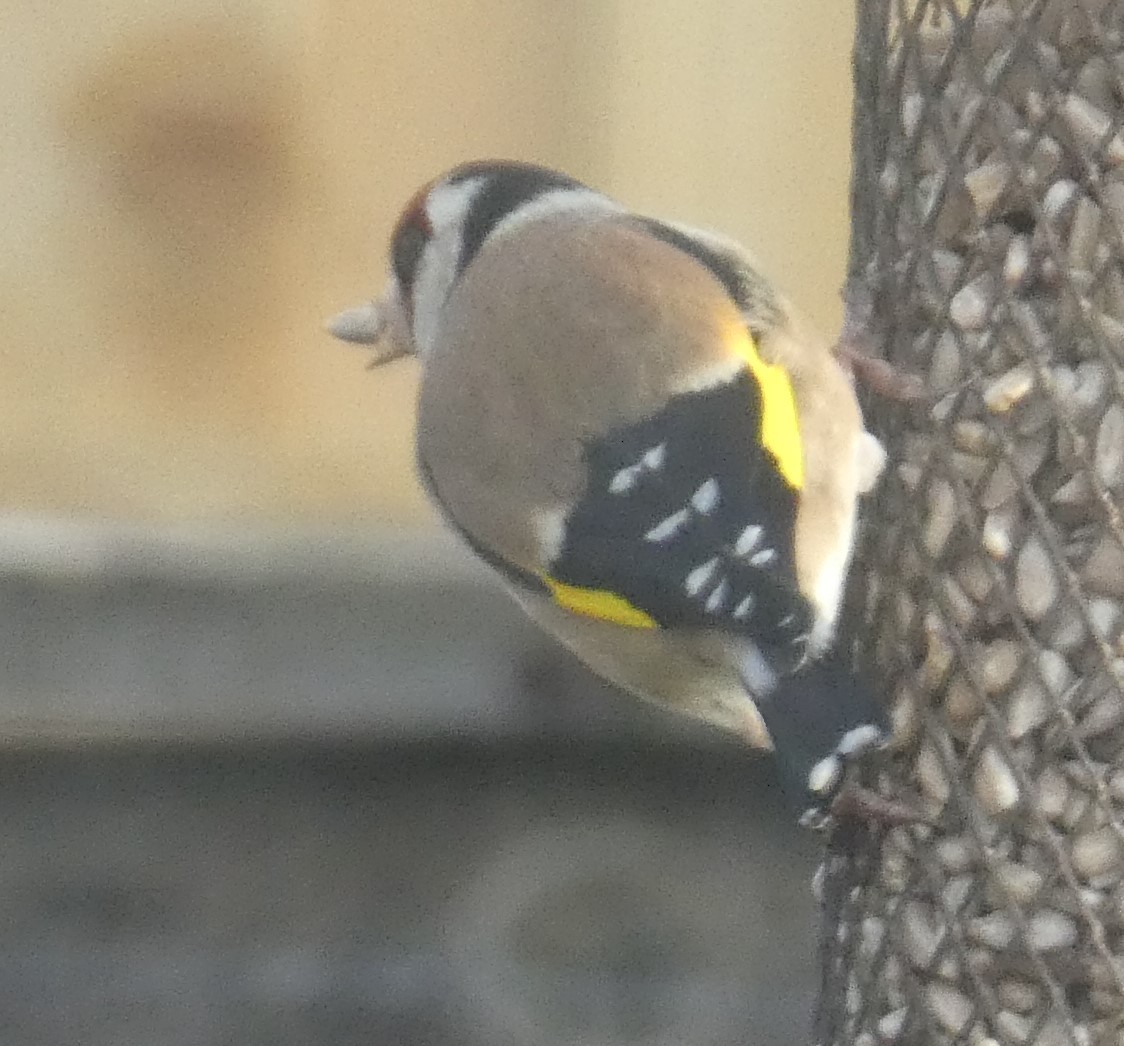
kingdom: Animalia
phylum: Chordata
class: Aves
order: Passeriformes
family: Fringillidae
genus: Carduelis
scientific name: Carduelis carduelis
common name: European goldfinch
